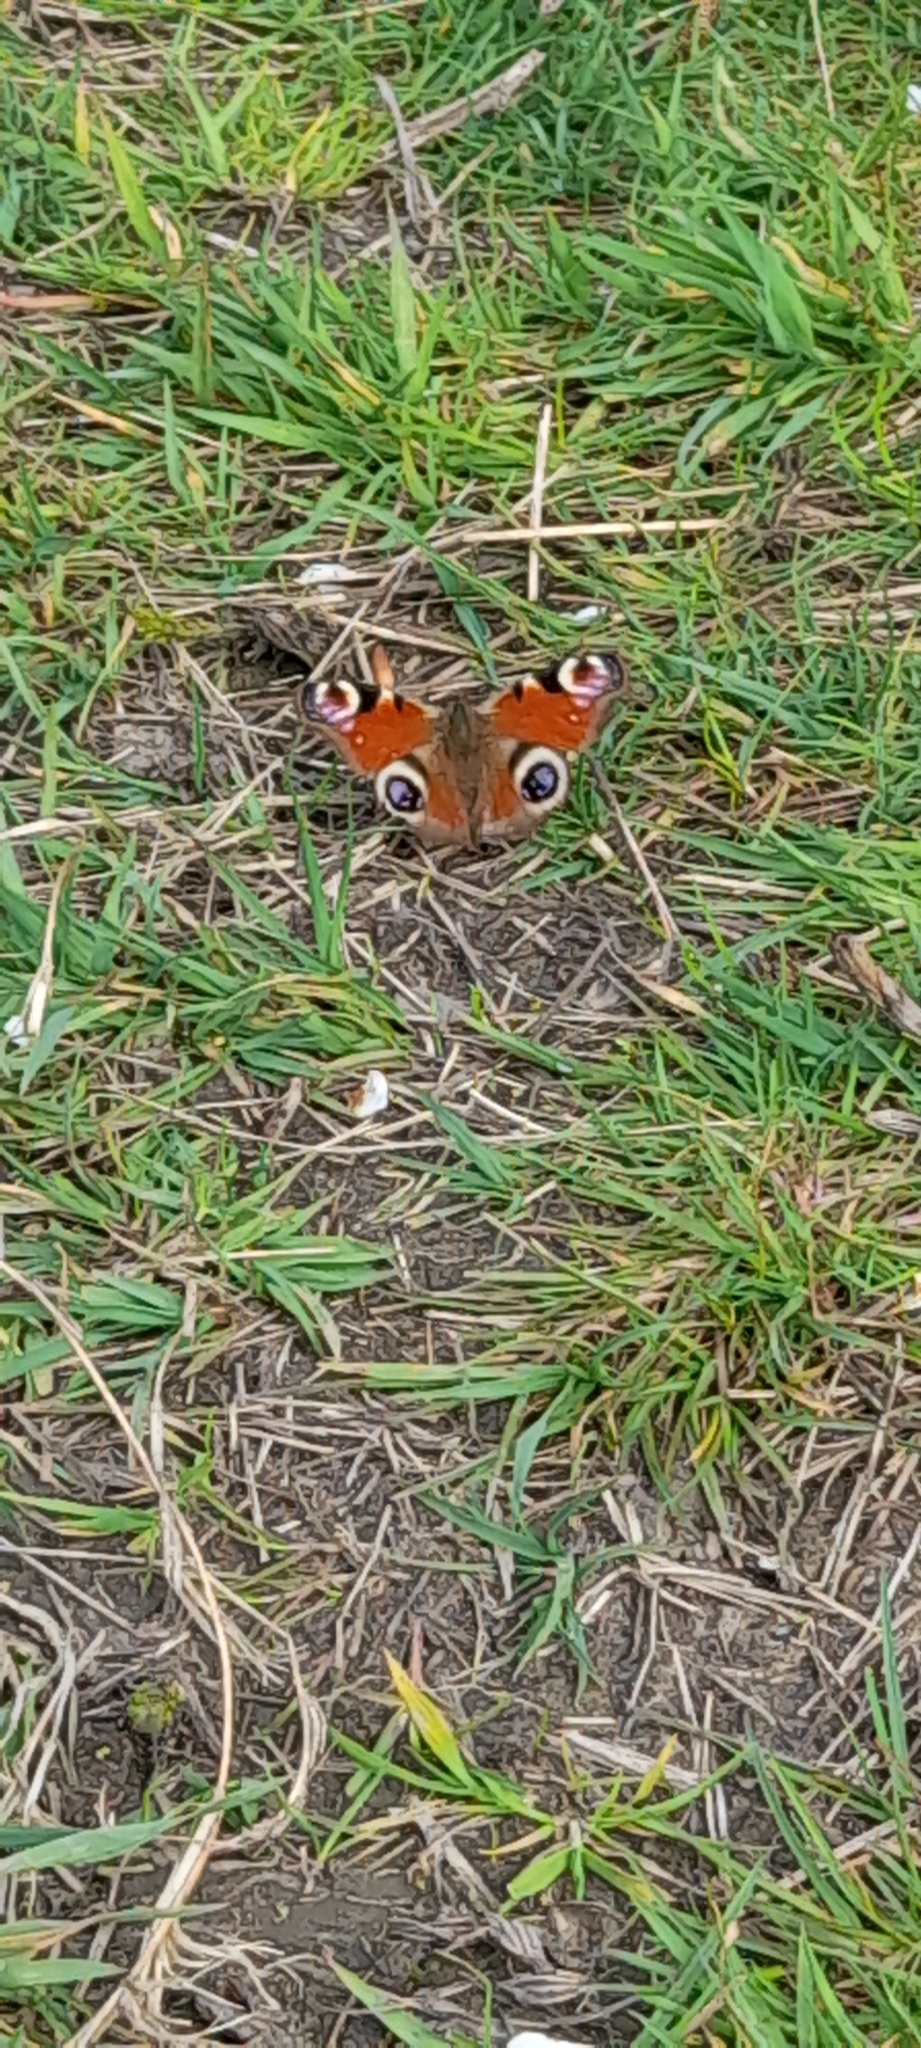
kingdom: Animalia
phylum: Arthropoda
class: Insecta
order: Lepidoptera
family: Nymphalidae
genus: Aglais
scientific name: Aglais io
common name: Peacock
